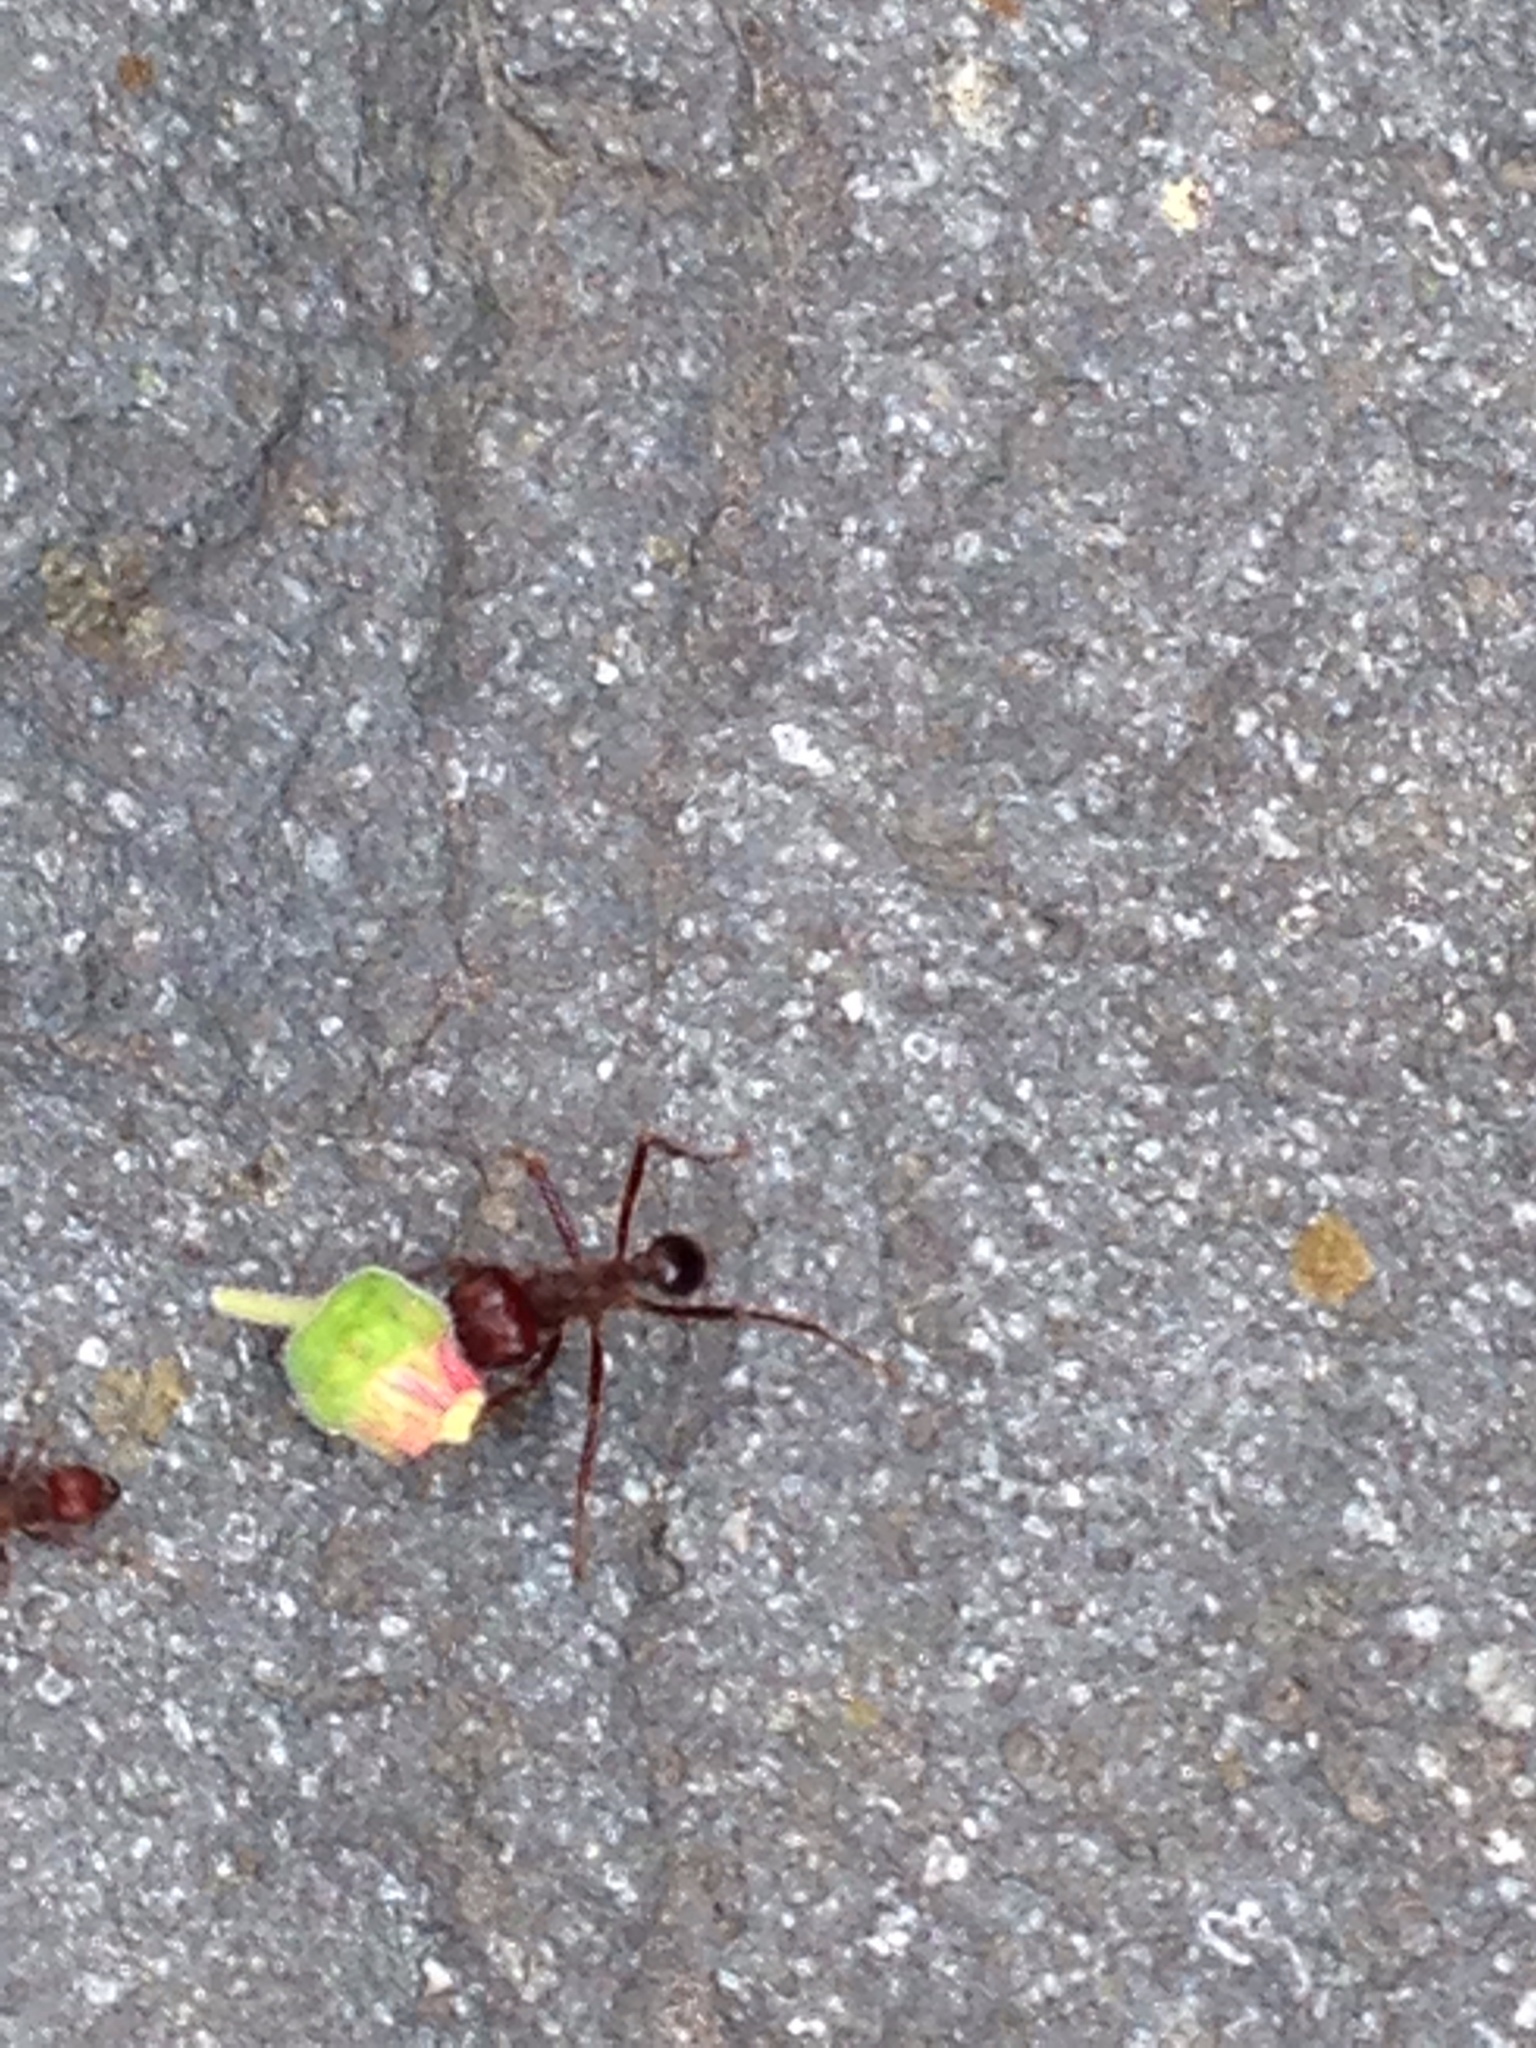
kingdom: Animalia
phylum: Arthropoda
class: Insecta
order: Hymenoptera
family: Formicidae
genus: Atta
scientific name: Atta mexicana
